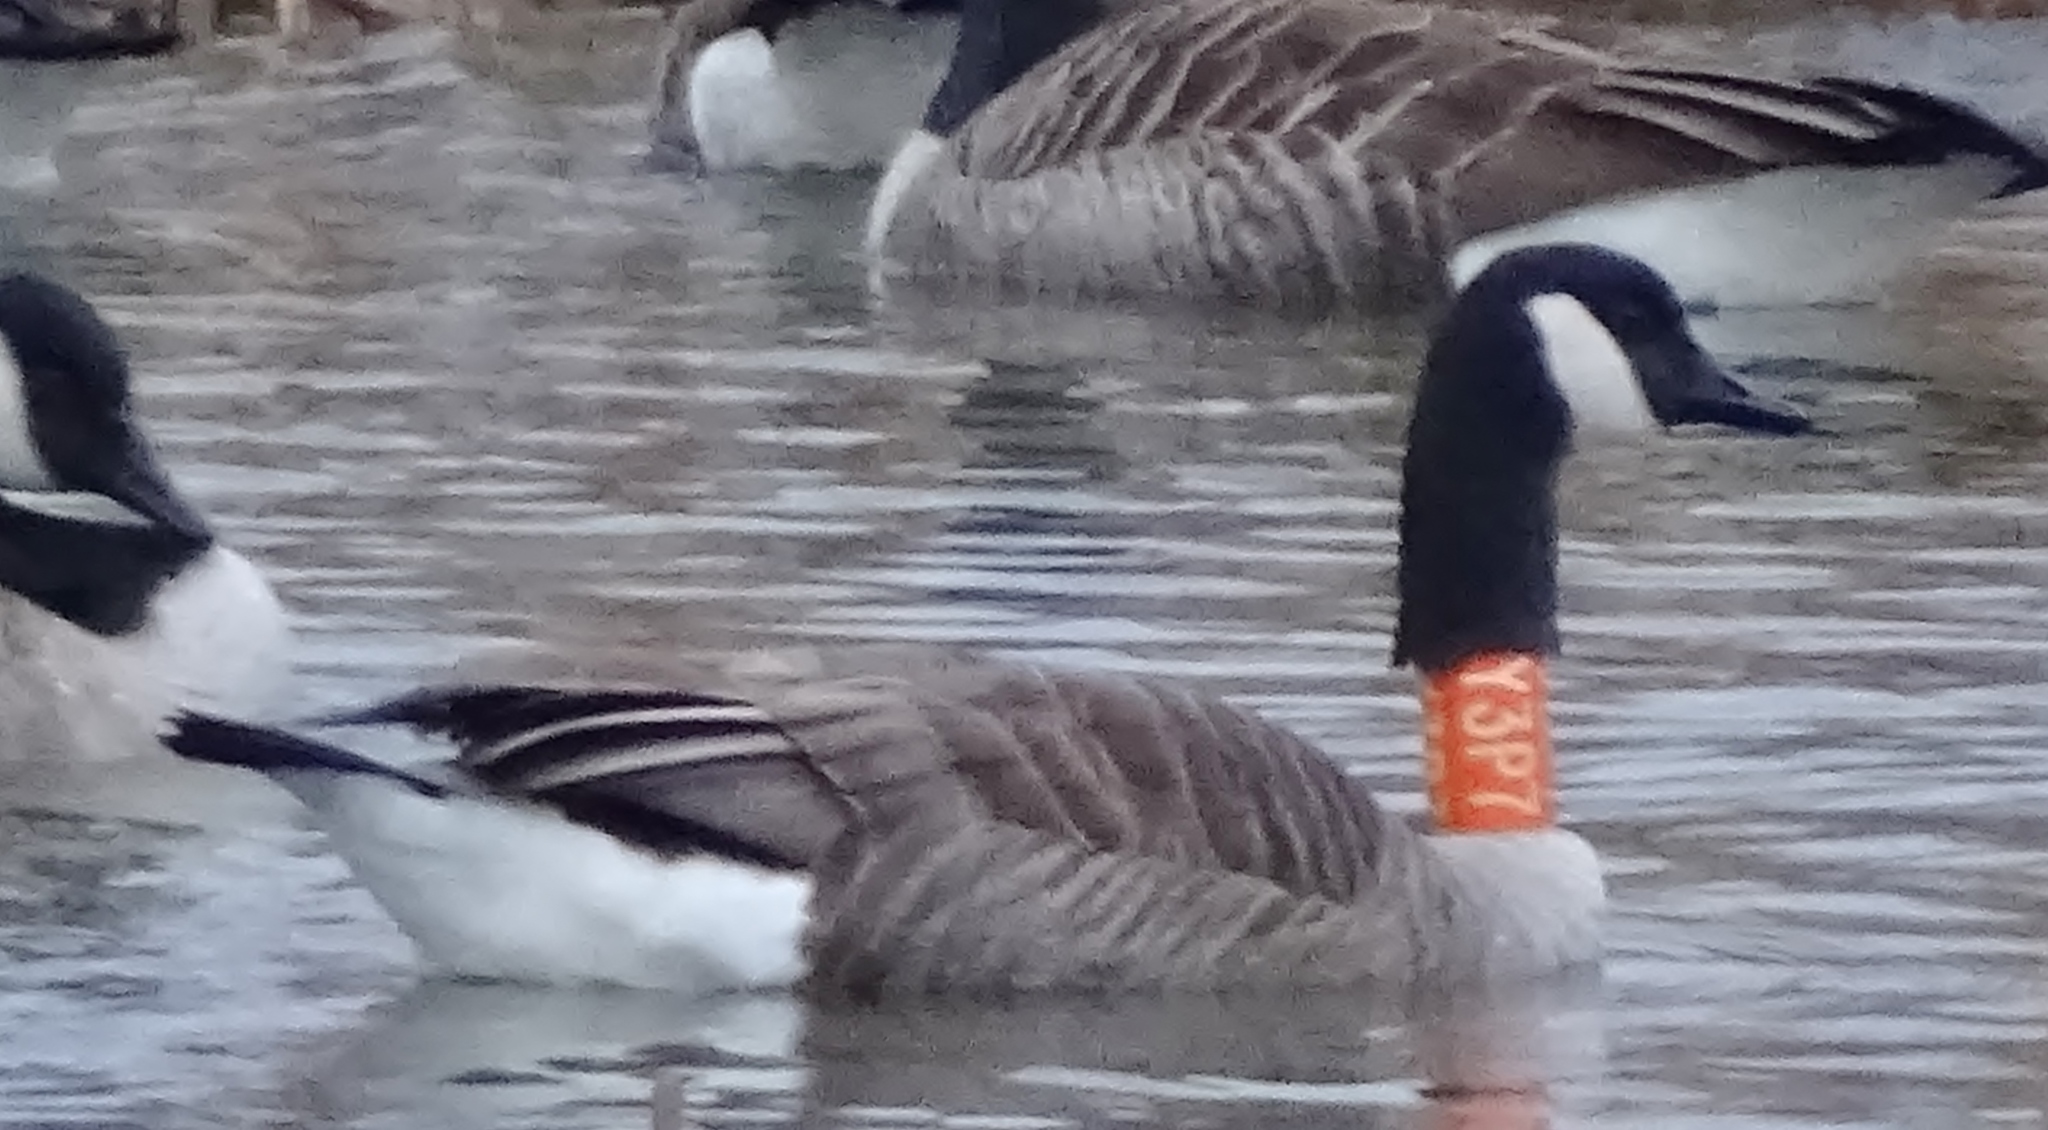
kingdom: Animalia
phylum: Chordata
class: Aves
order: Anseriformes
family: Anatidae
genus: Branta
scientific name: Branta canadensis
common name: Canada goose
